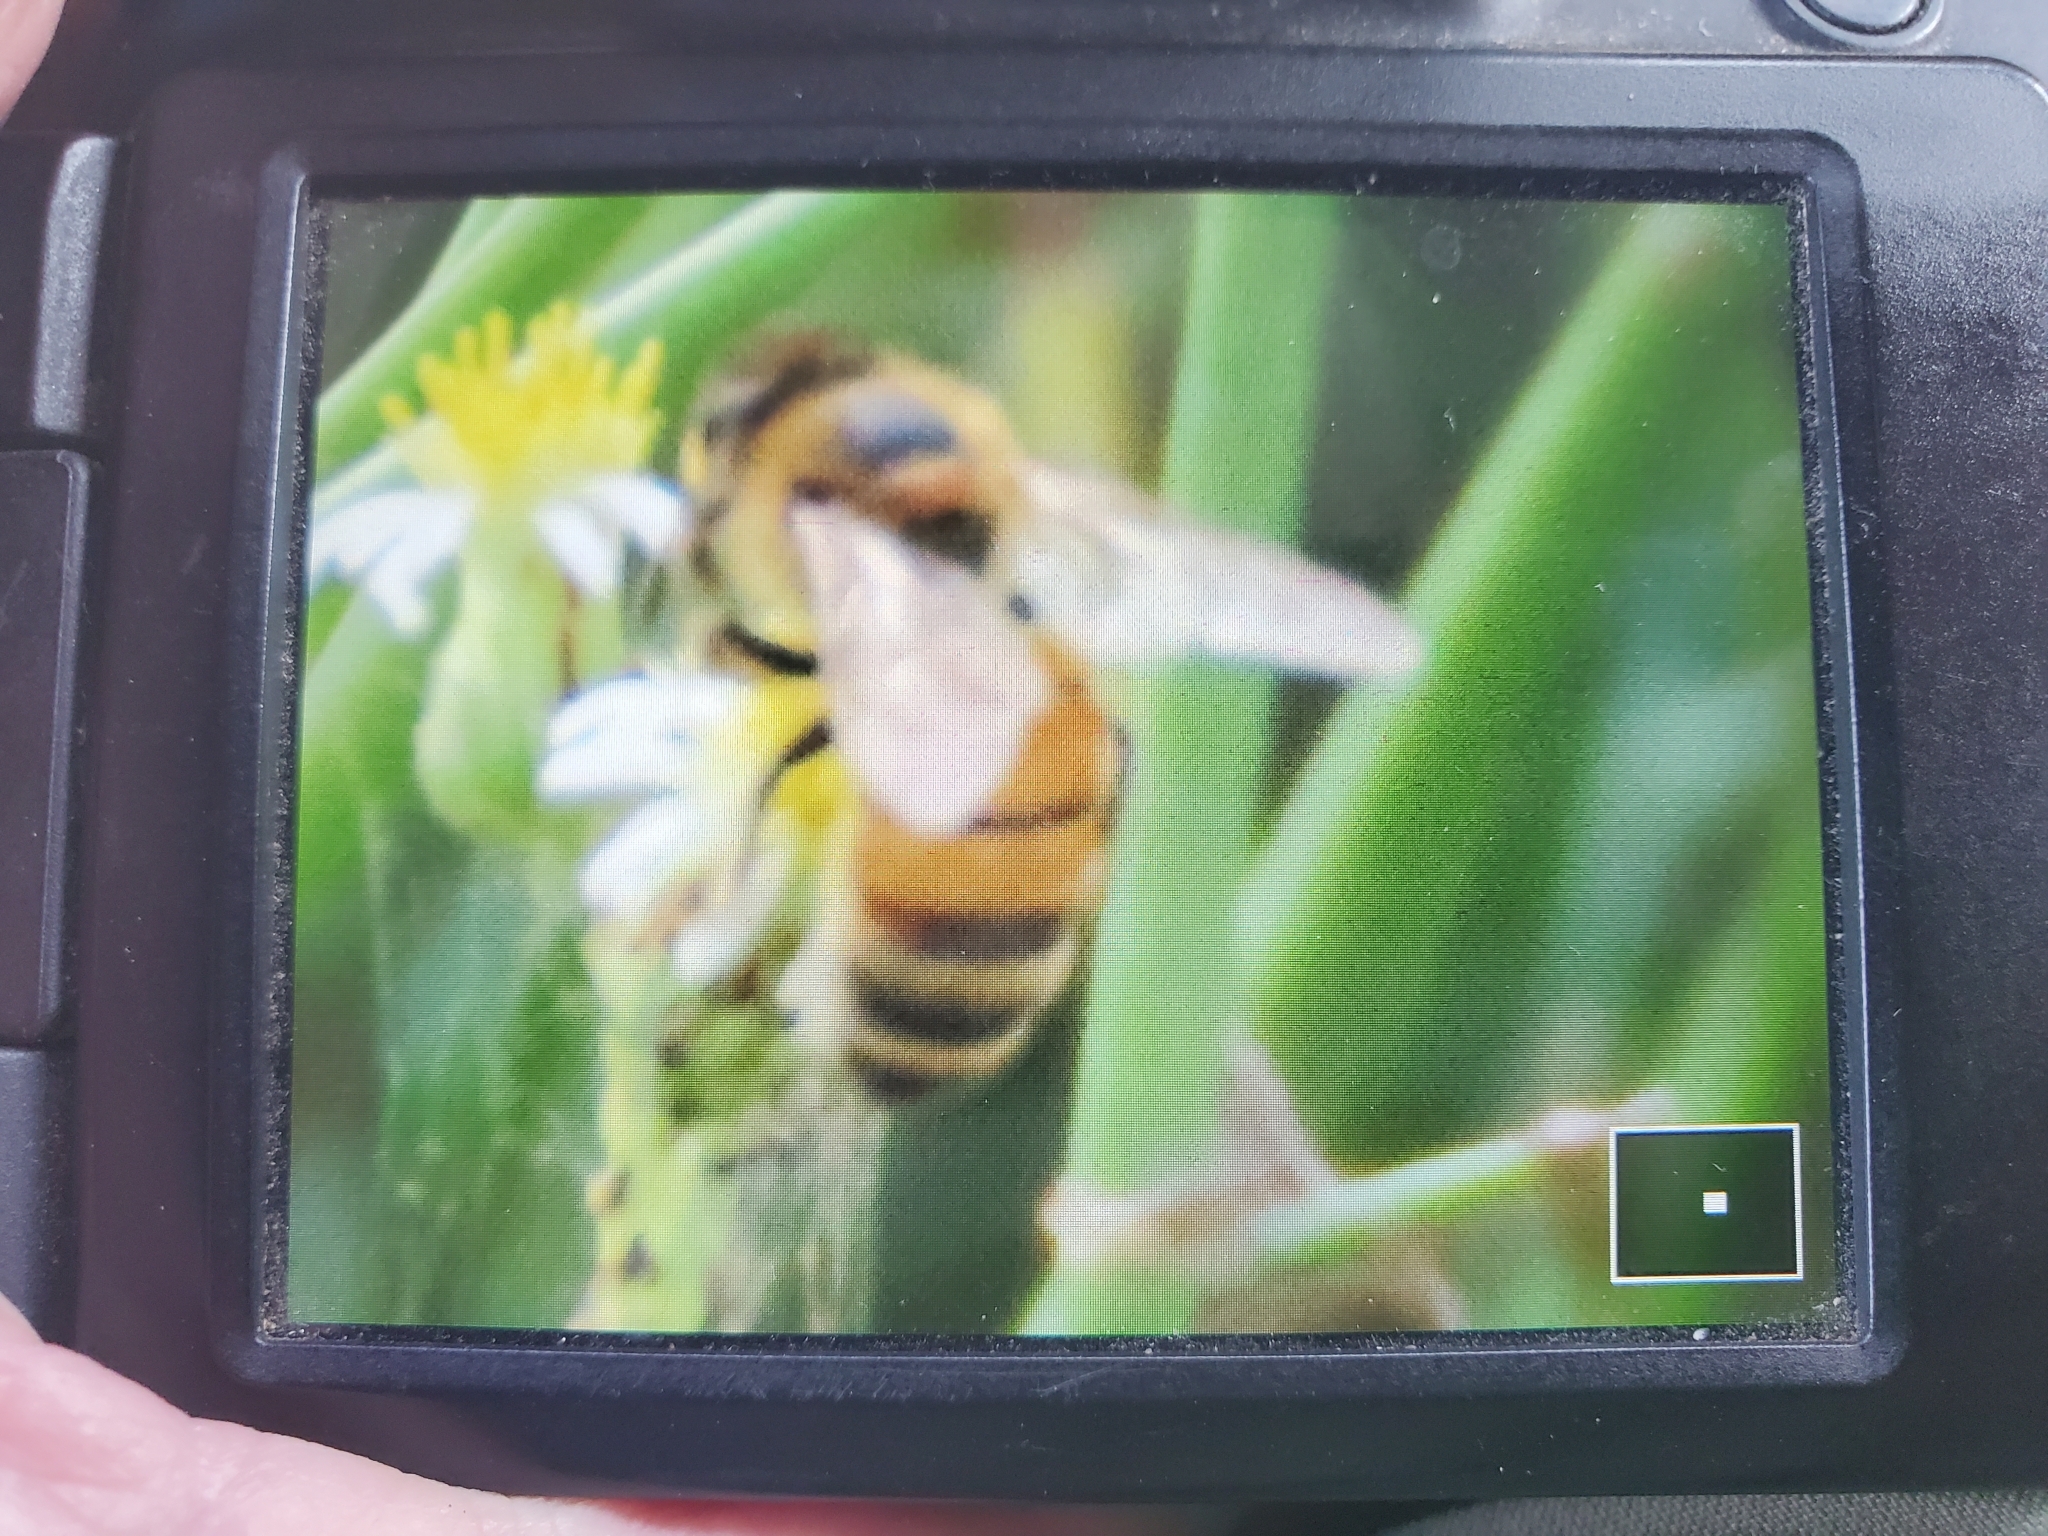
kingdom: Animalia
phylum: Arthropoda
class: Insecta
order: Hymenoptera
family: Apidae
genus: Apis
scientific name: Apis mellifera
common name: Honey bee
